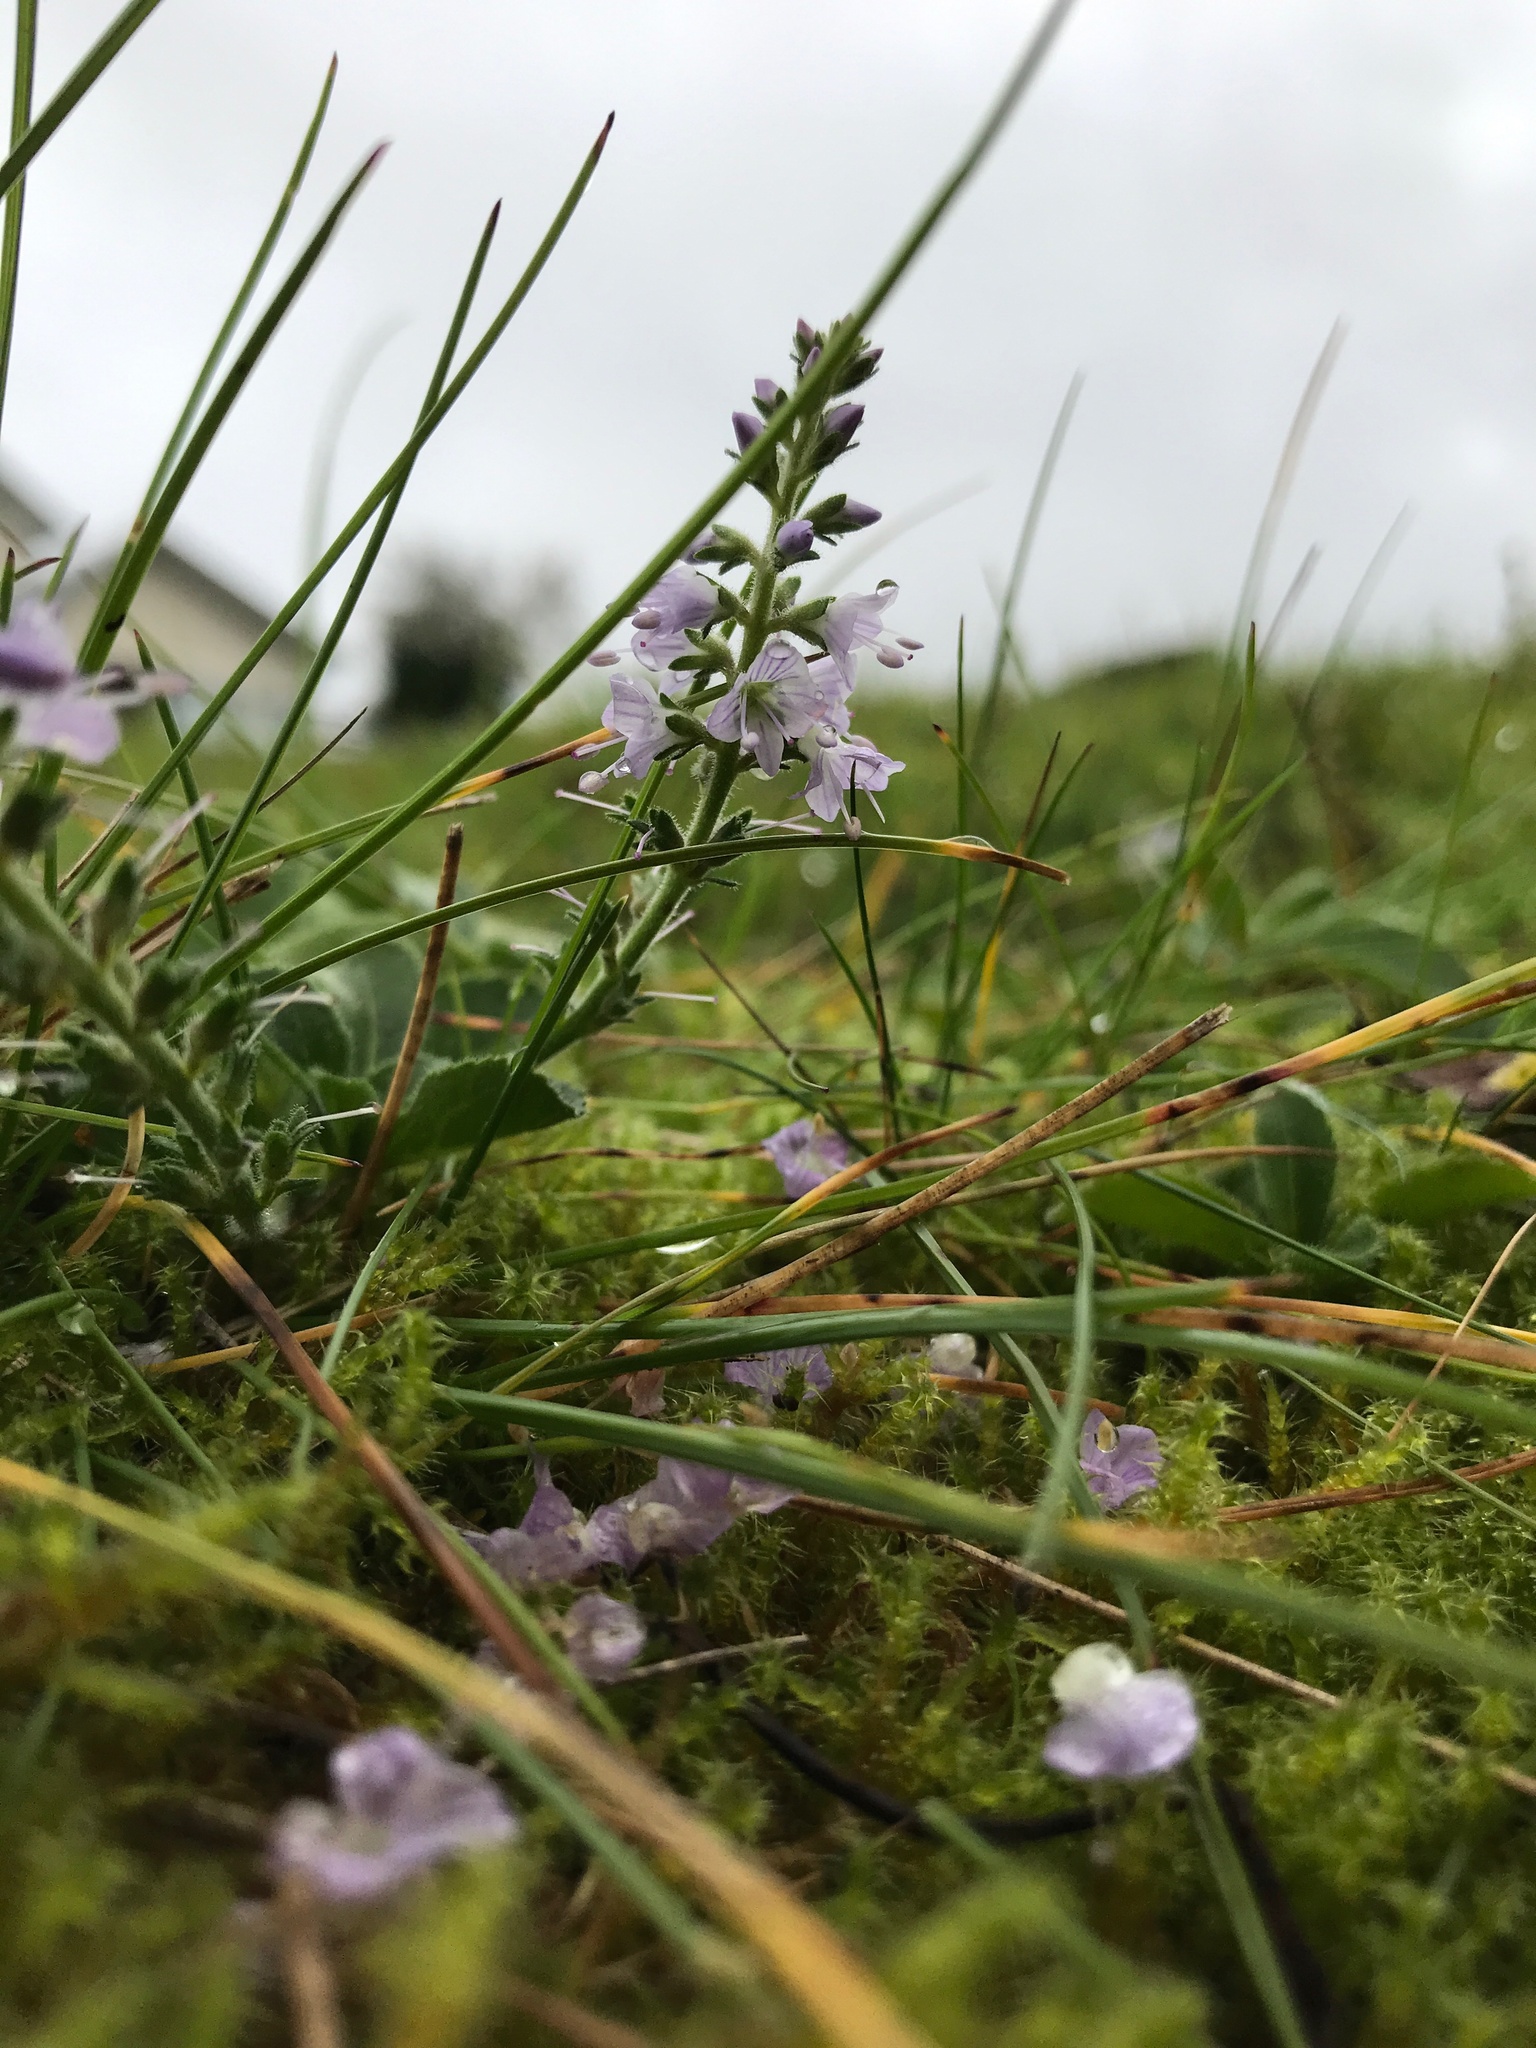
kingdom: Plantae
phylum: Tracheophyta
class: Magnoliopsida
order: Lamiales
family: Plantaginaceae
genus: Veronica
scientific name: Veronica officinalis
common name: Common speedwell
